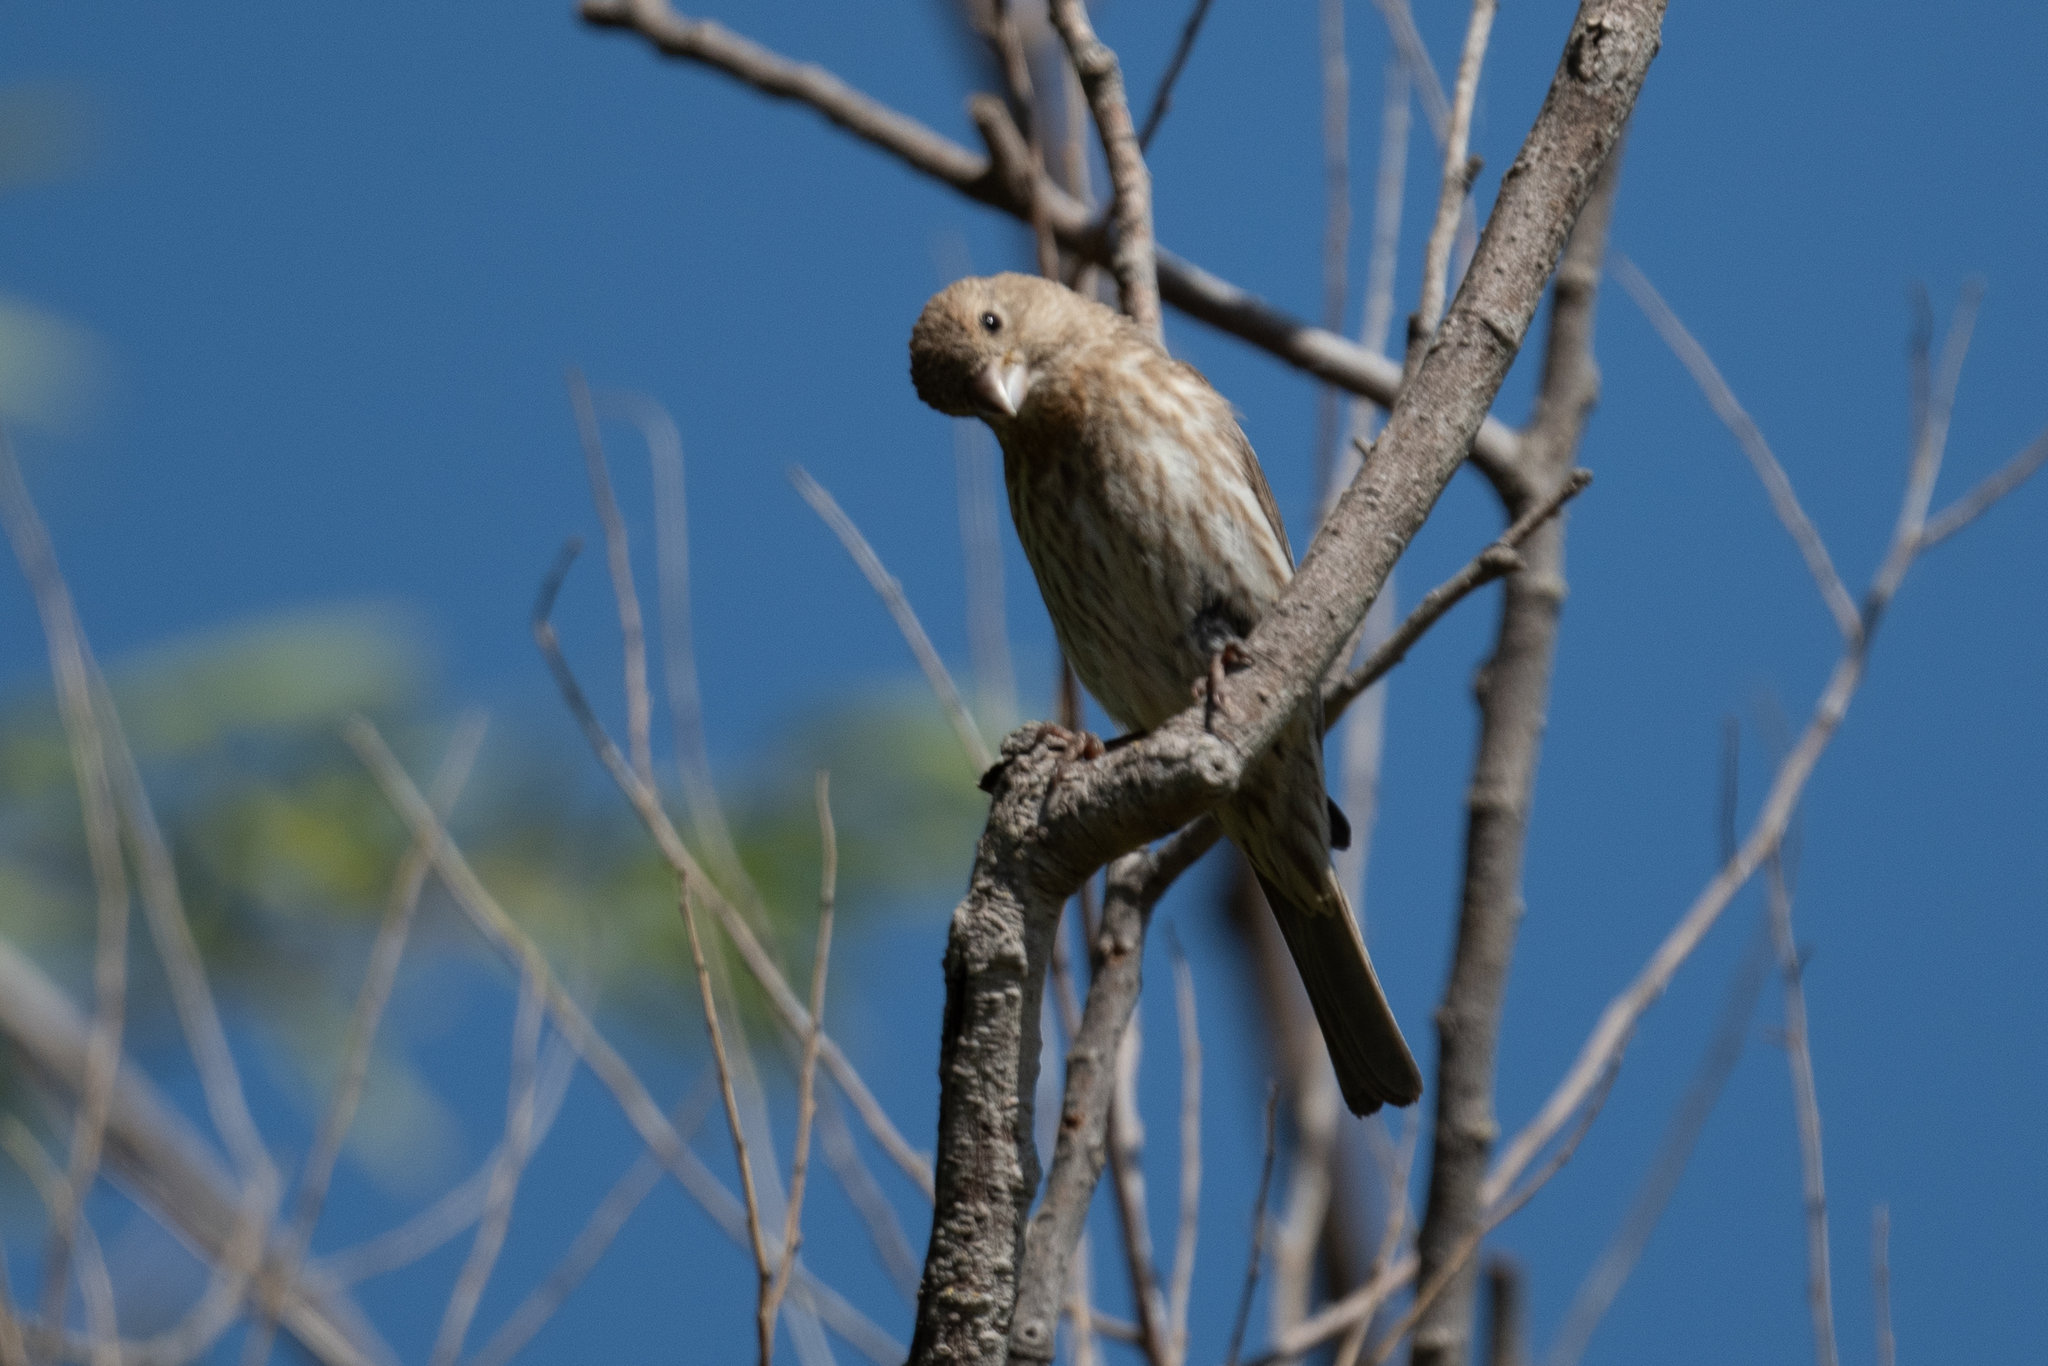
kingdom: Animalia
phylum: Chordata
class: Aves
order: Passeriformes
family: Fringillidae
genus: Haemorhous
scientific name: Haemorhous mexicanus
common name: House finch
